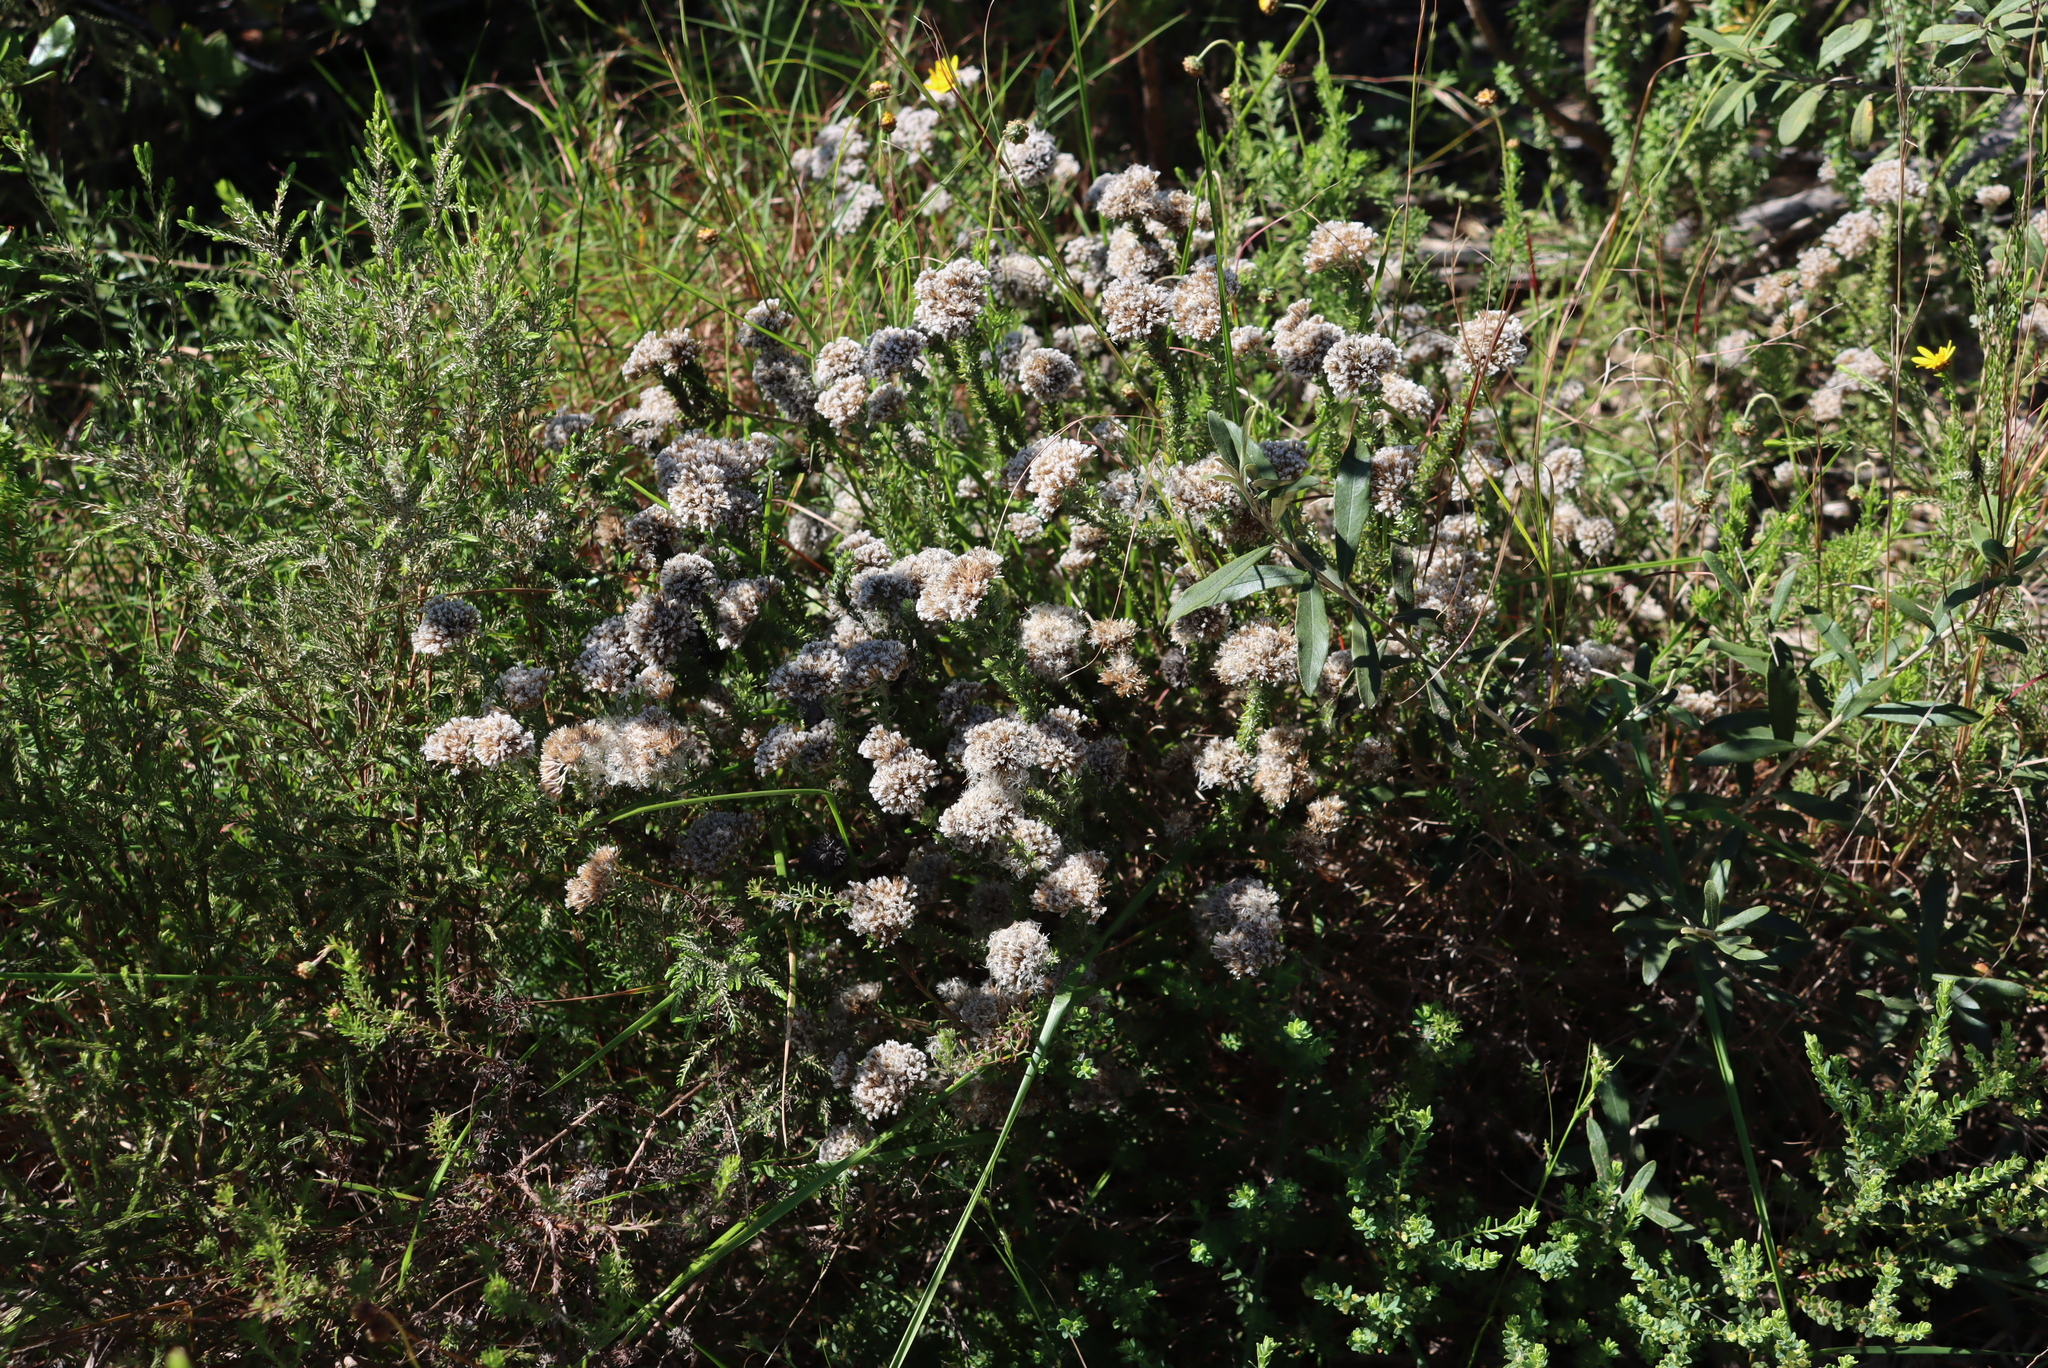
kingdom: Plantae
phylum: Tracheophyta
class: Magnoliopsida
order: Asterales
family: Asteraceae
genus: Metalasia
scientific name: Metalasia pungens
